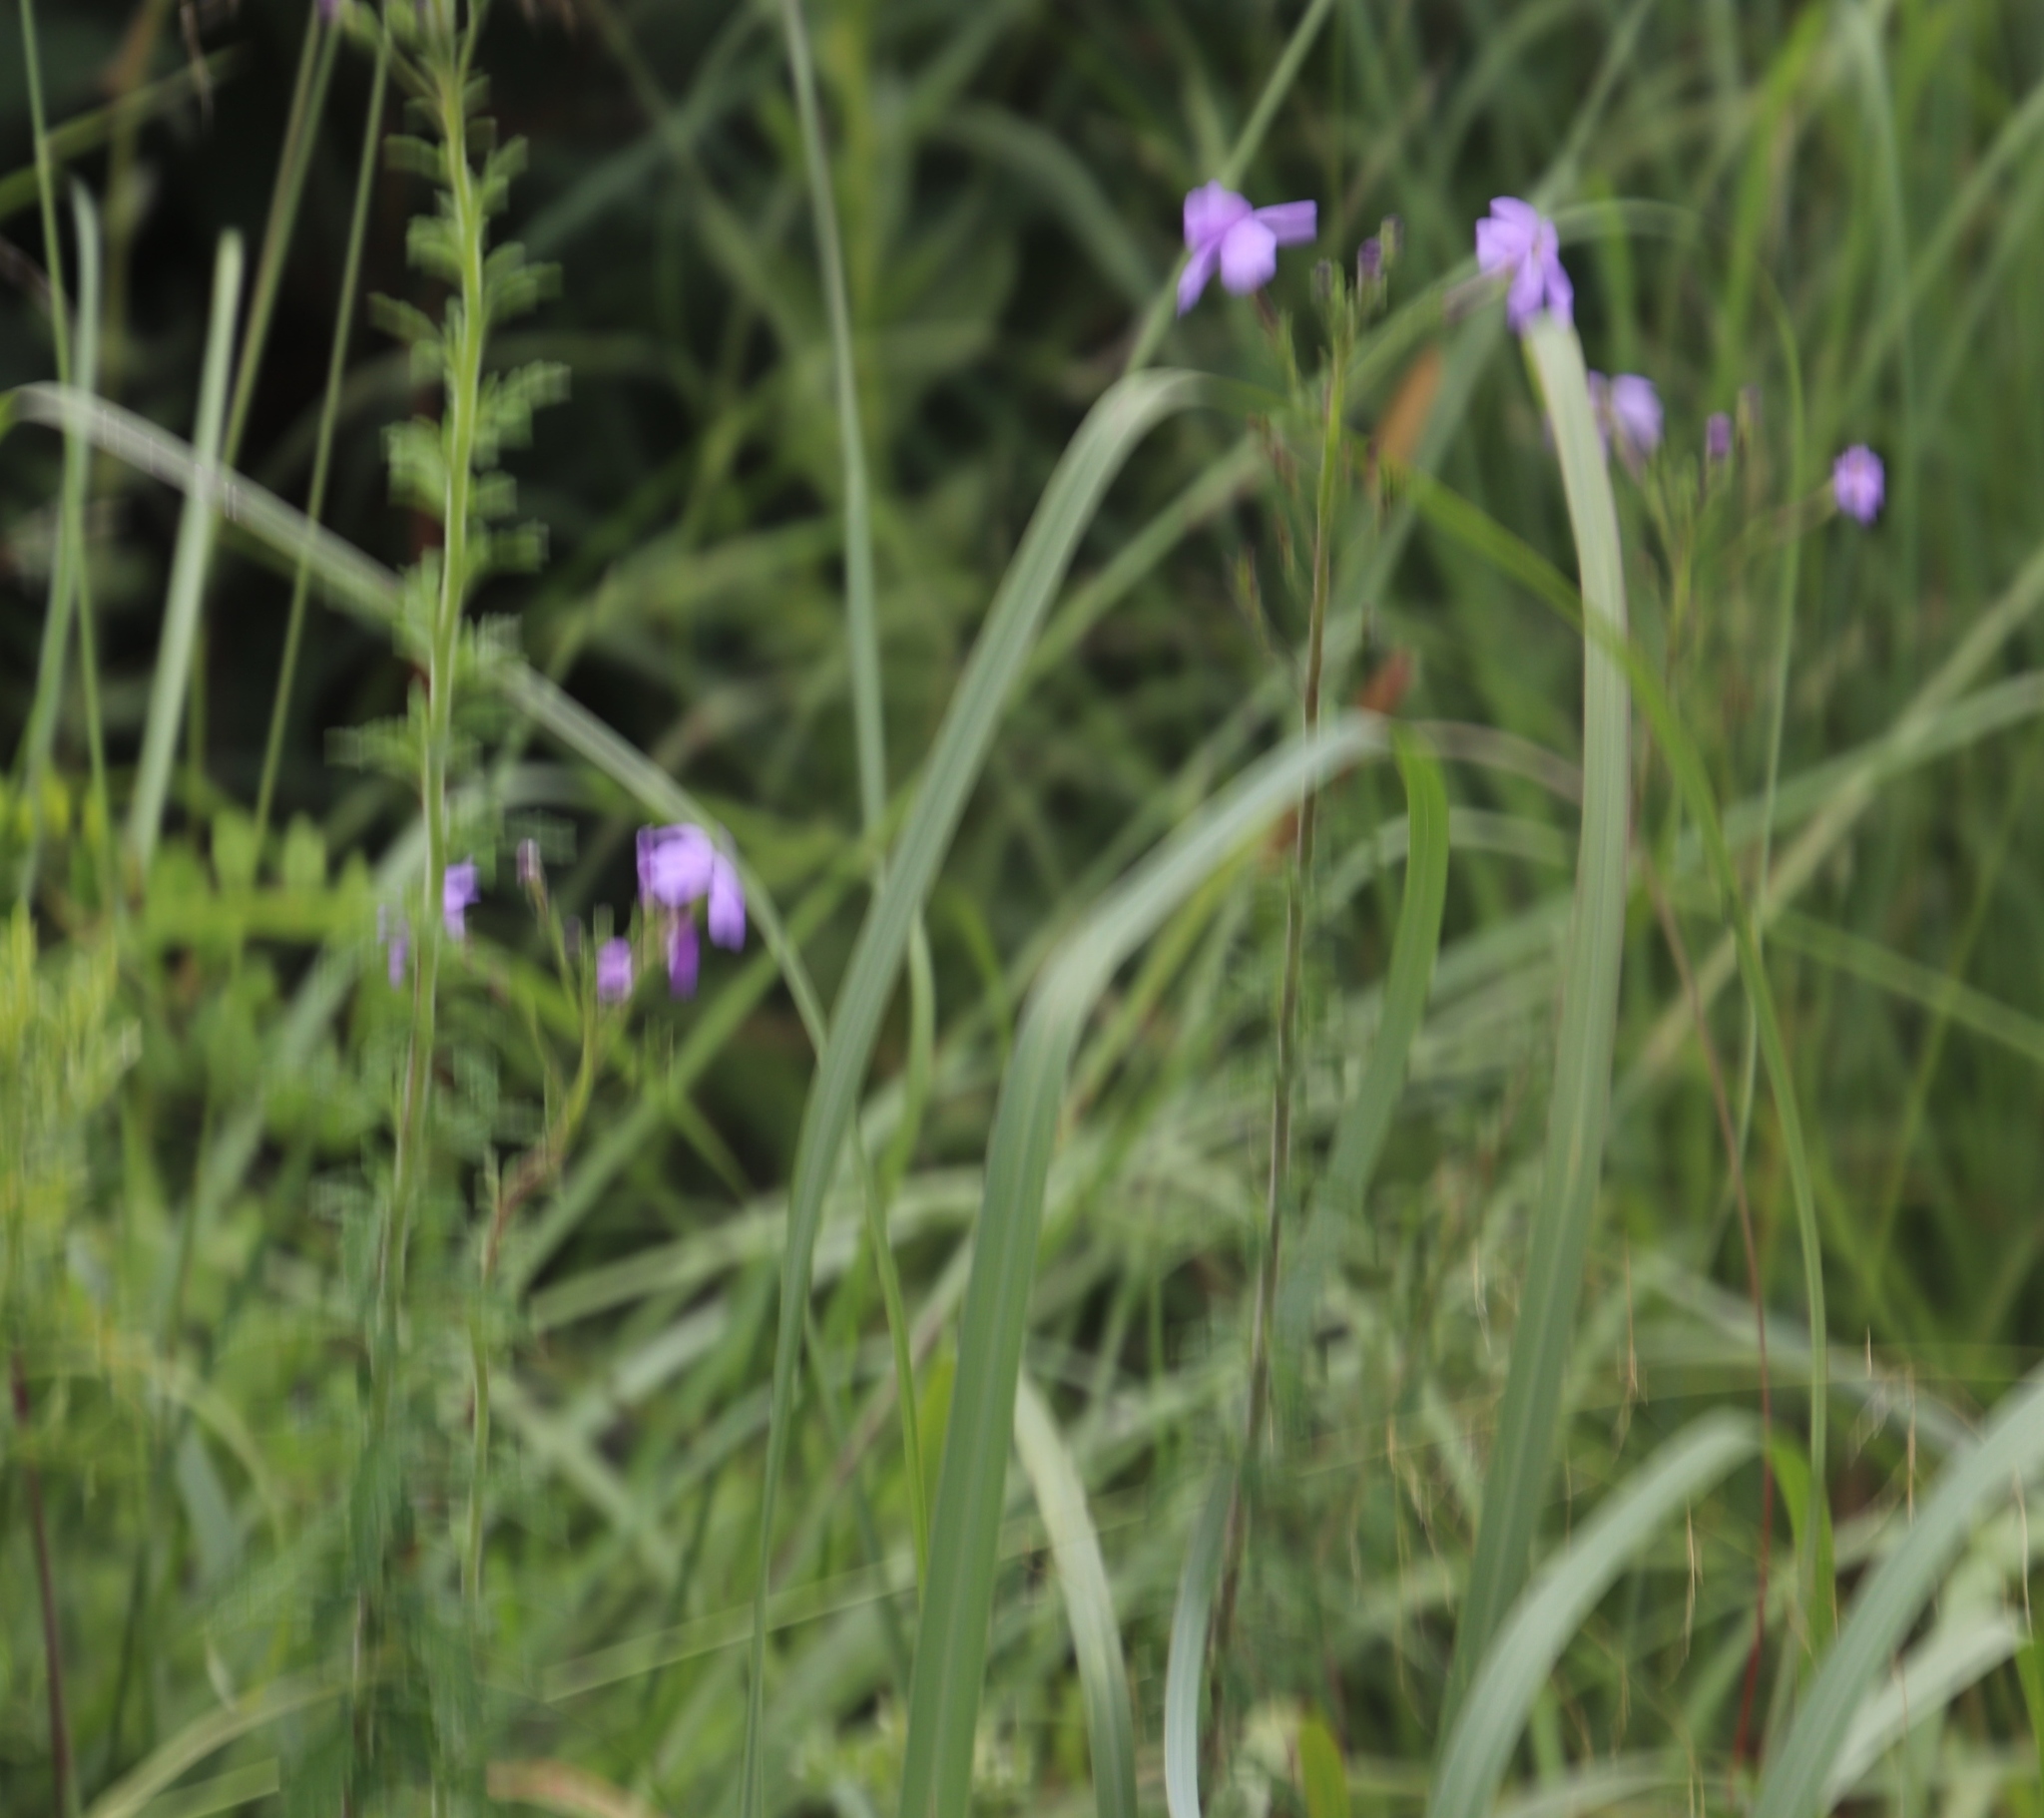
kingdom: Plantae
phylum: Tracheophyta
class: Magnoliopsida
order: Lamiales
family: Scrophulariaceae
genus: Jamesbrittenia
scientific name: Jamesbrittenia grandiflora
